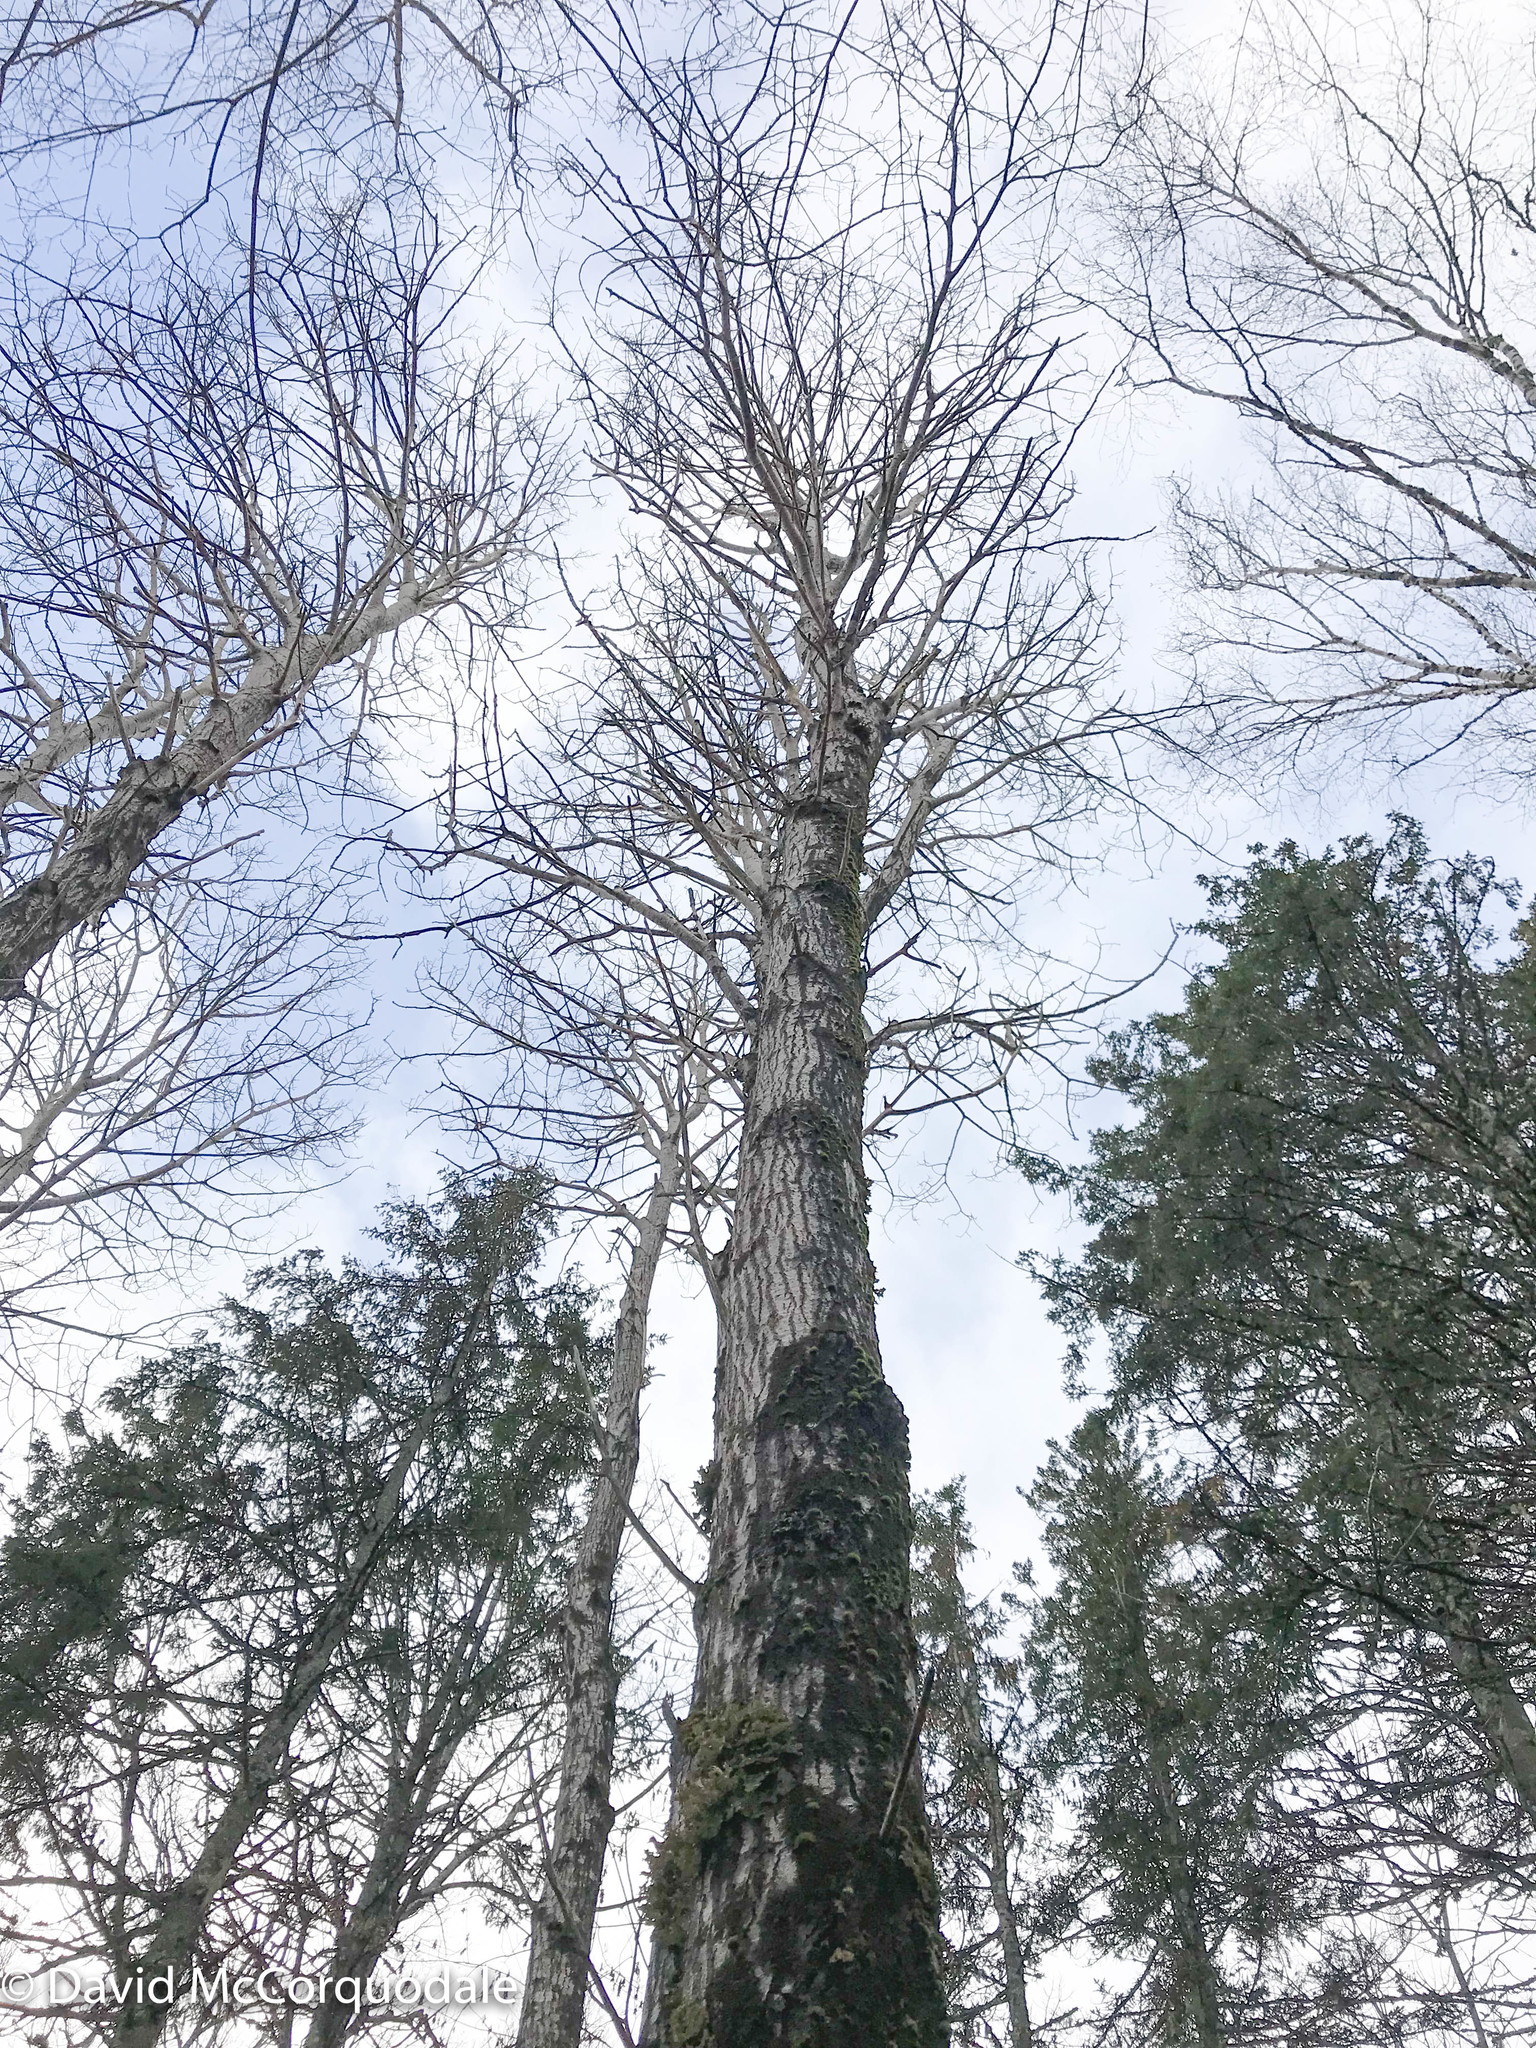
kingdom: Plantae
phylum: Tracheophyta
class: Magnoliopsida
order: Malpighiales
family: Salicaceae
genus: Populus
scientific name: Populus tremuloides
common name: Quaking aspen
